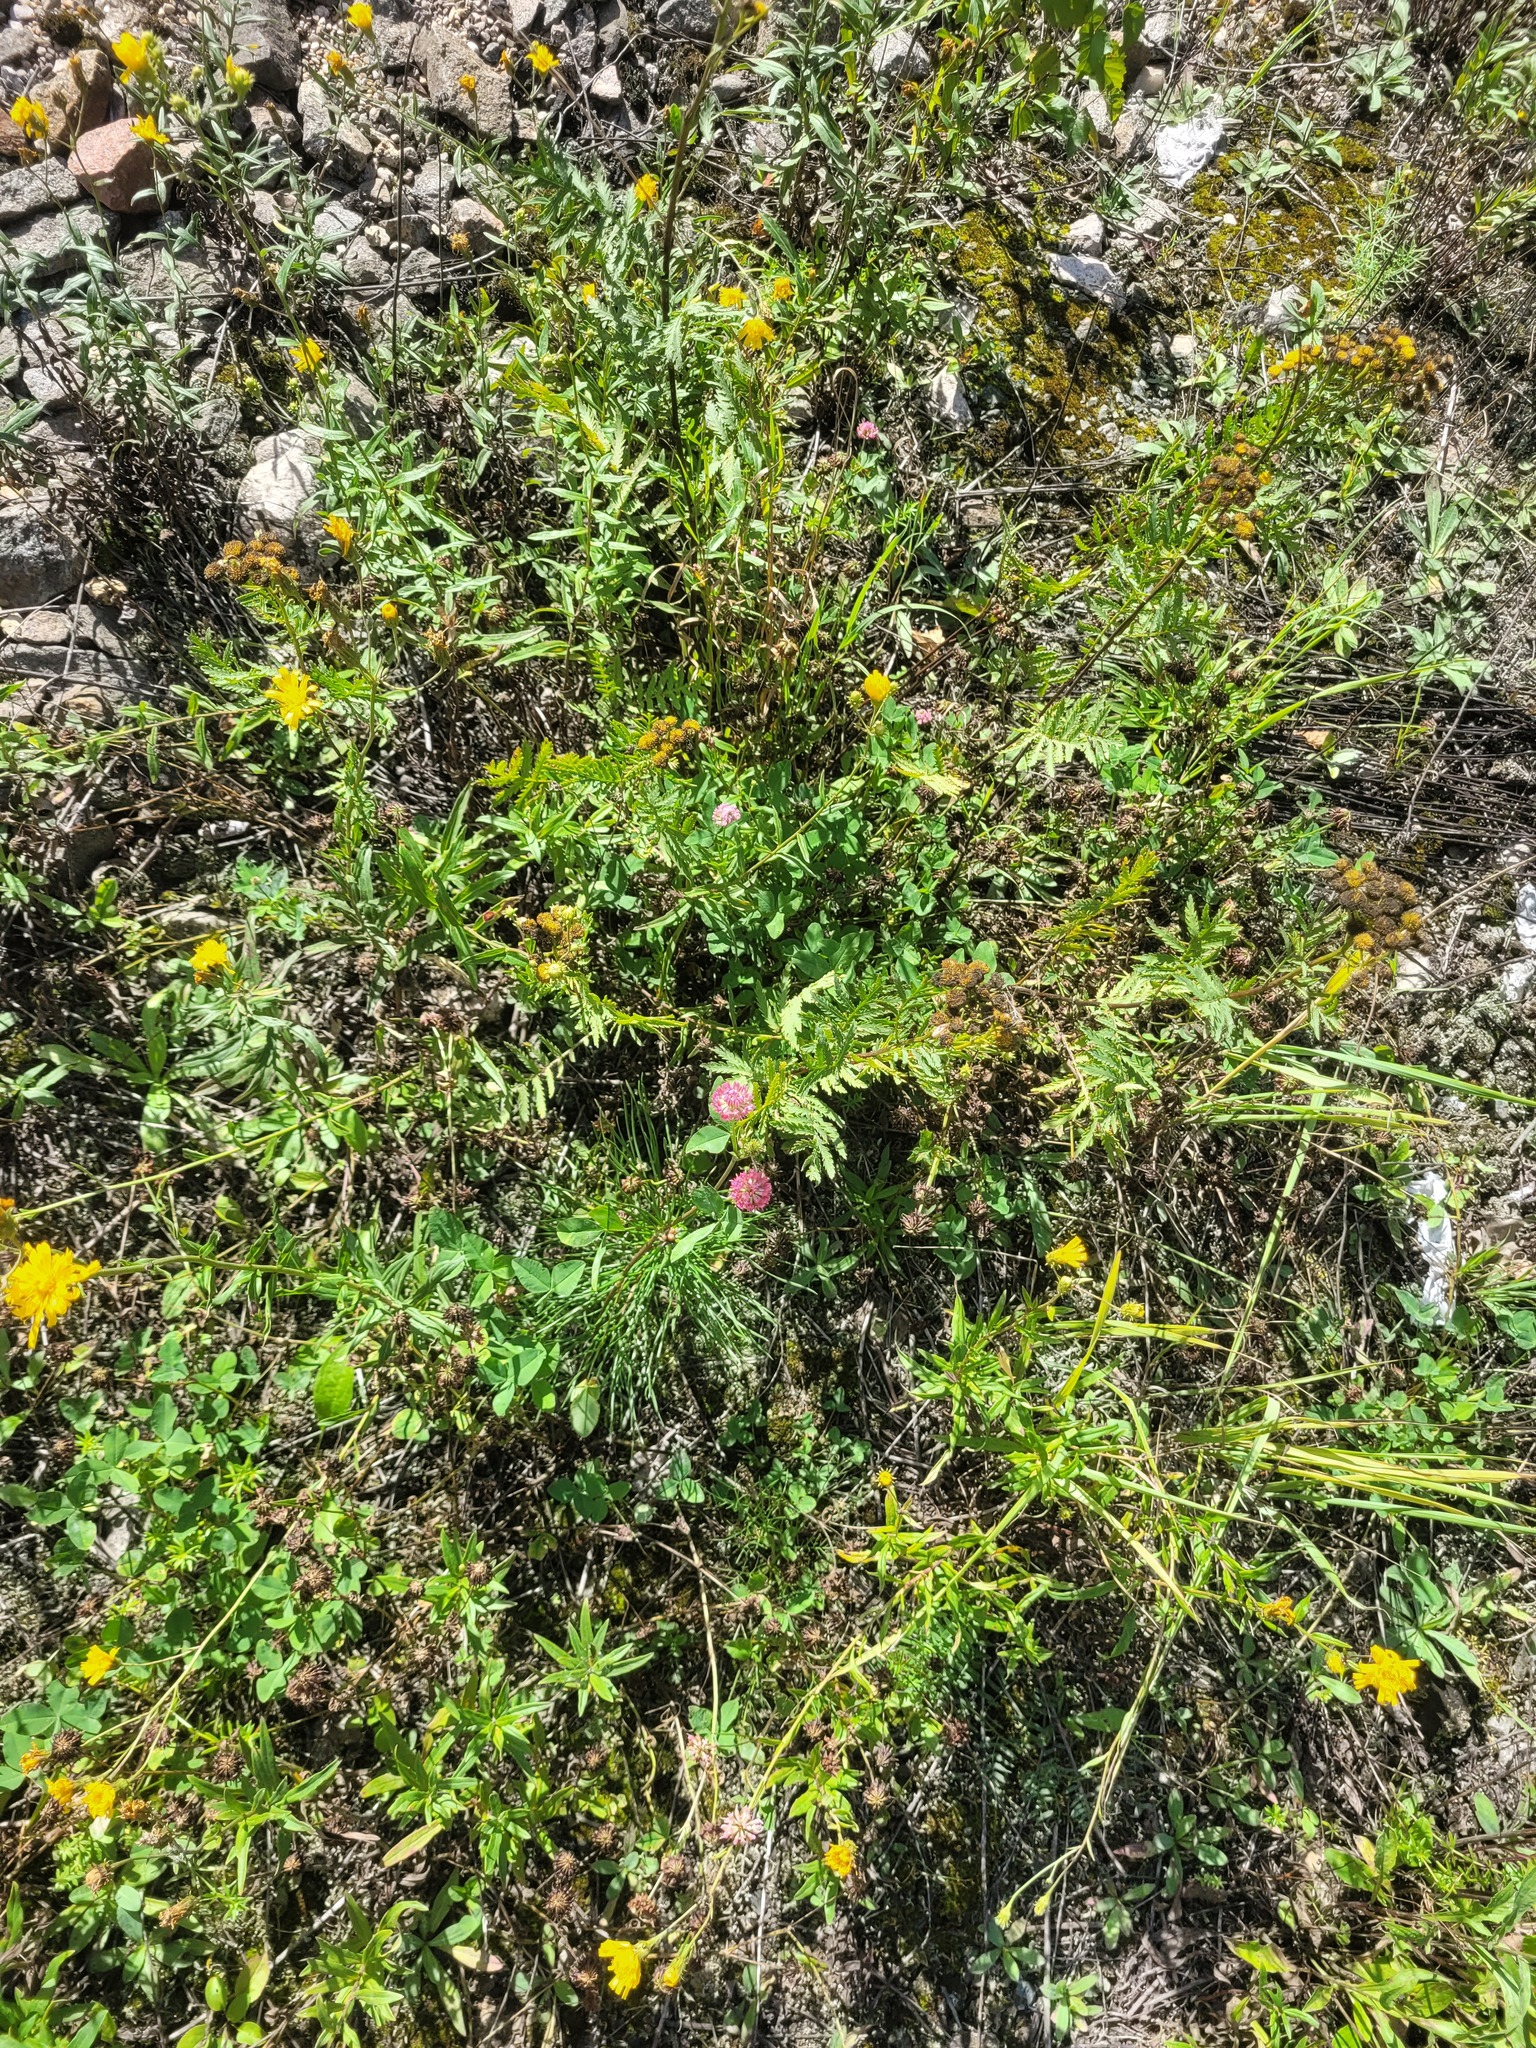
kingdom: Plantae
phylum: Tracheophyta
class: Magnoliopsida
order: Fabales
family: Fabaceae
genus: Trifolium
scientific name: Trifolium hybridum
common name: Alsike clover
